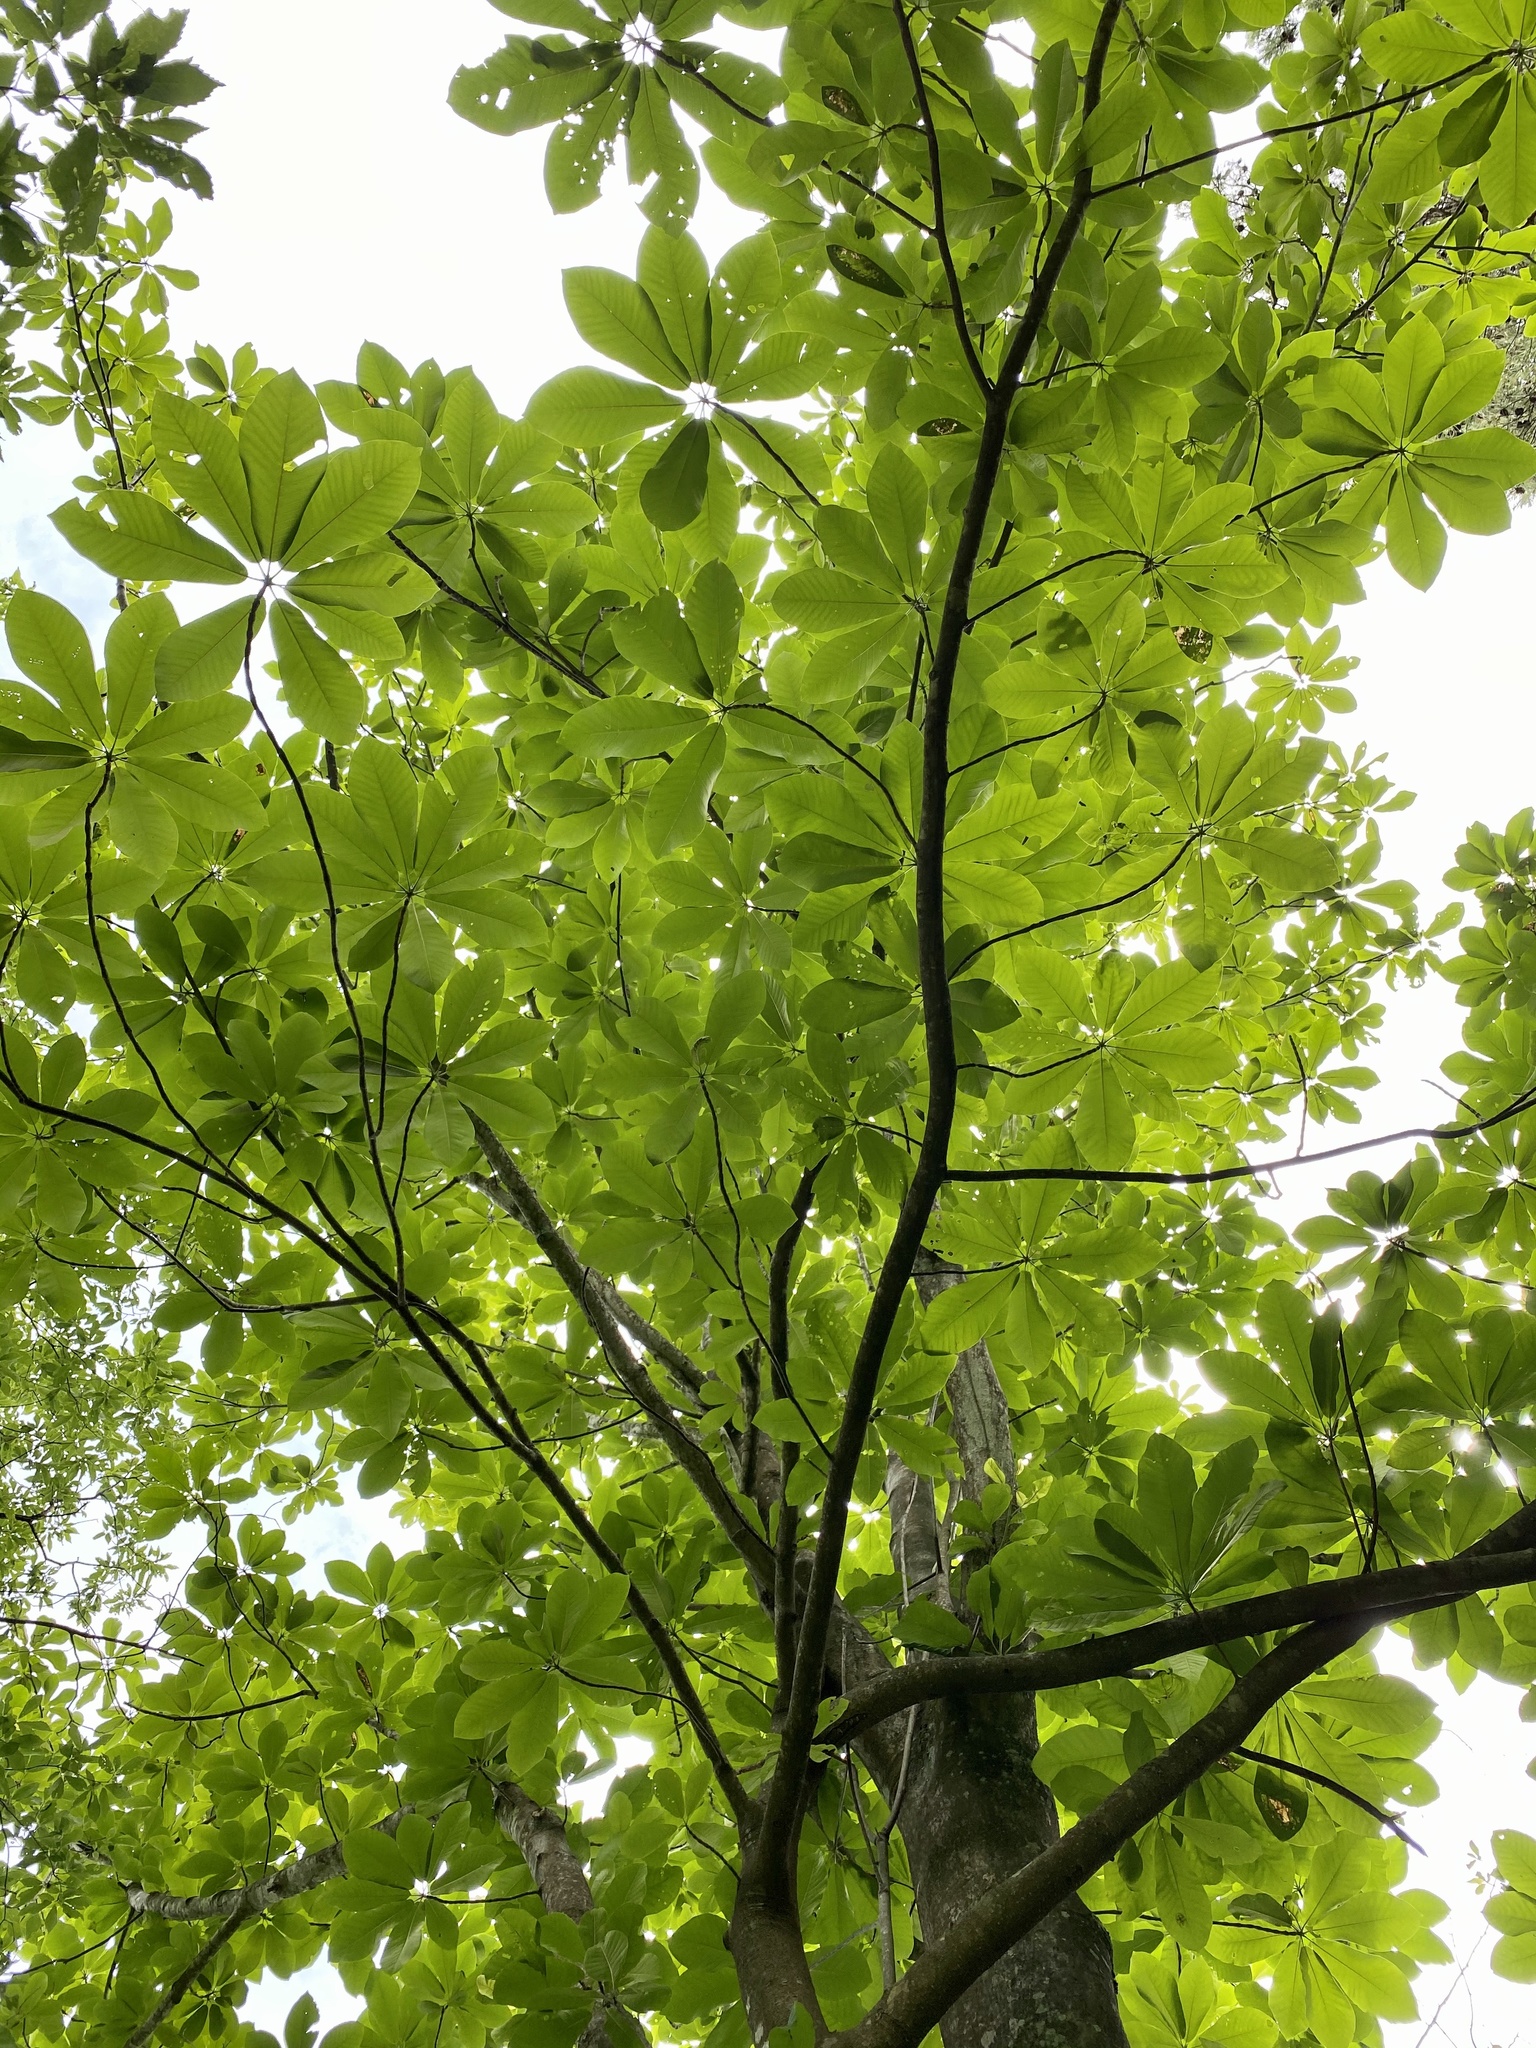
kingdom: Plantae
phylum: Tracheophyta
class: Magnoliopsida
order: Magnoliales
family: Magnoliaceae
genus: Magnolia
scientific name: Magnolia obovata
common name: Japanese whitebark magnolia
